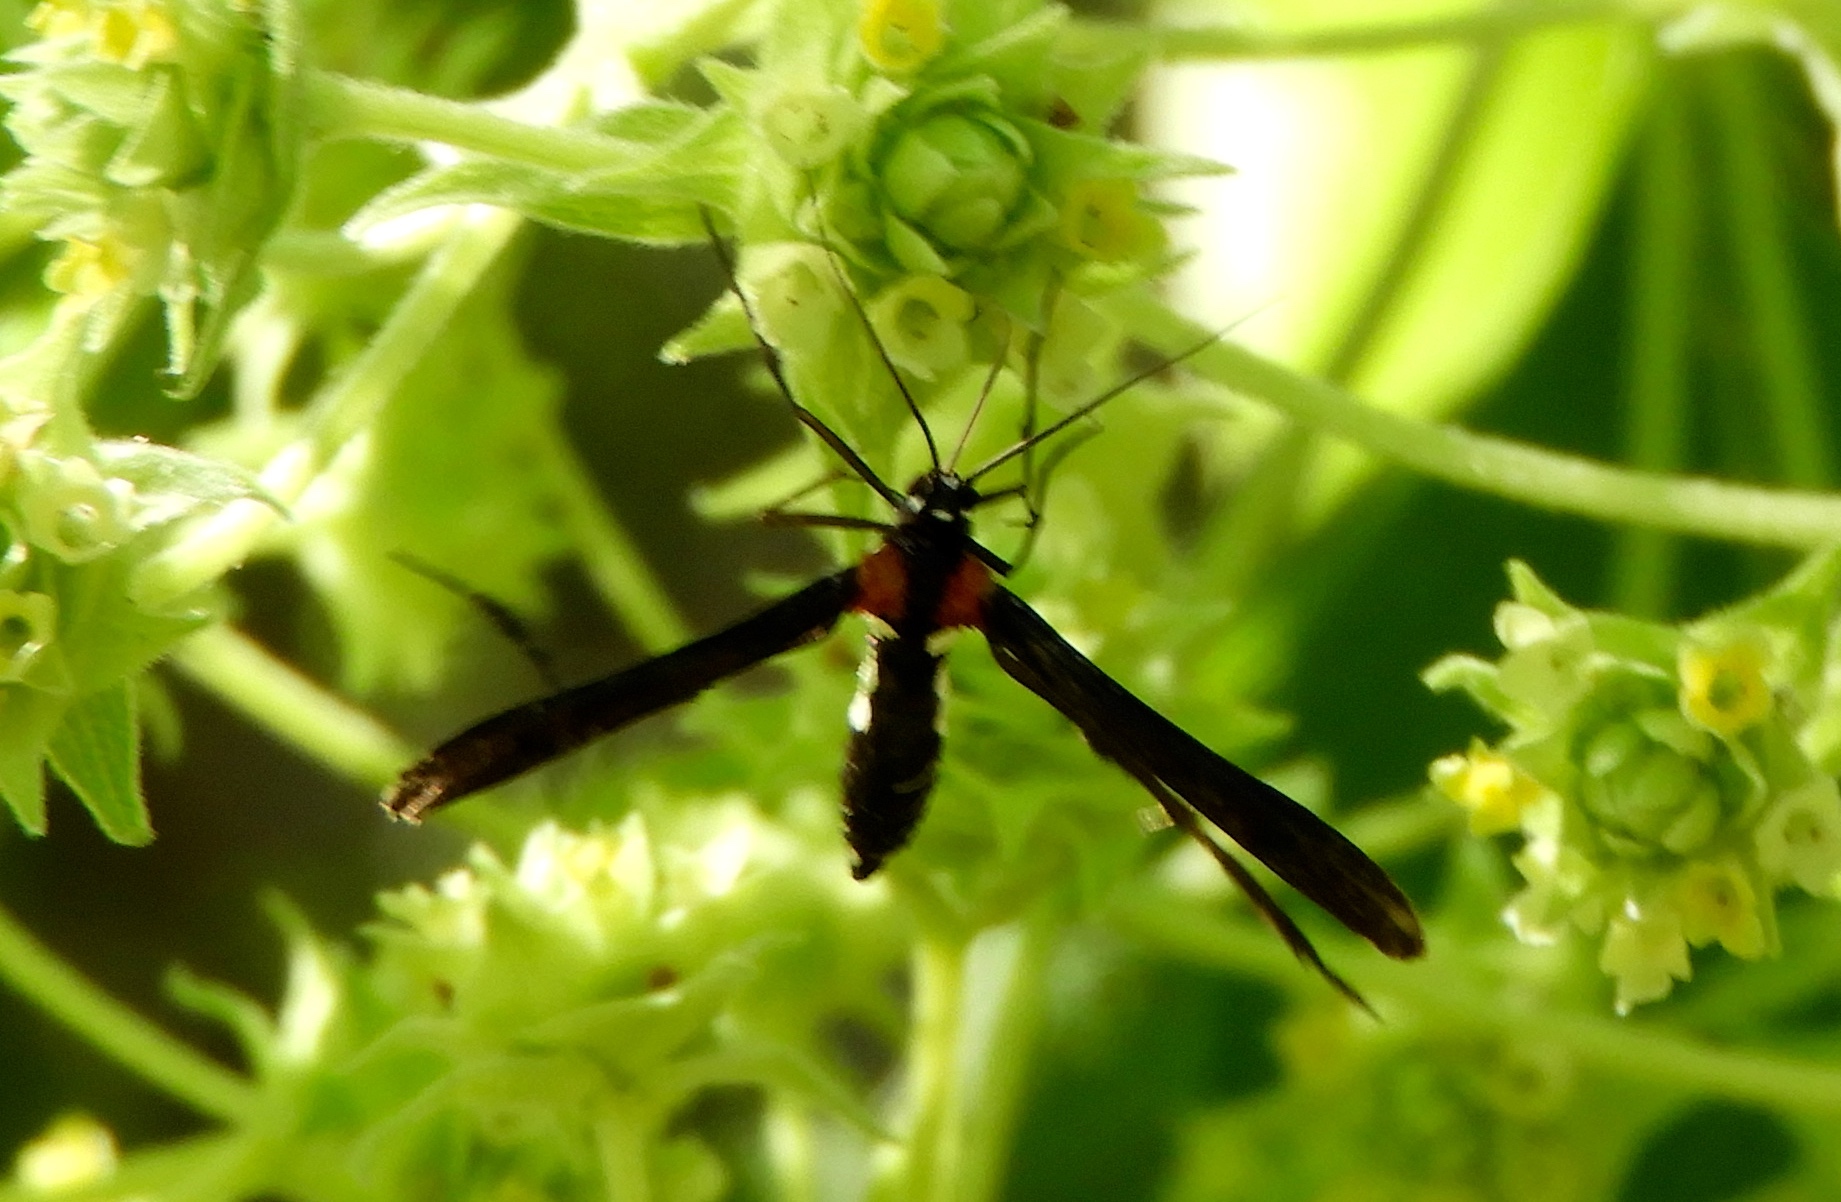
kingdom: Animalia
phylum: Arthropoda
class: Insecta
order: Lepidoptera
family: Pterophoridae
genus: Hellinsia
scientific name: Hellinsia chamelai
